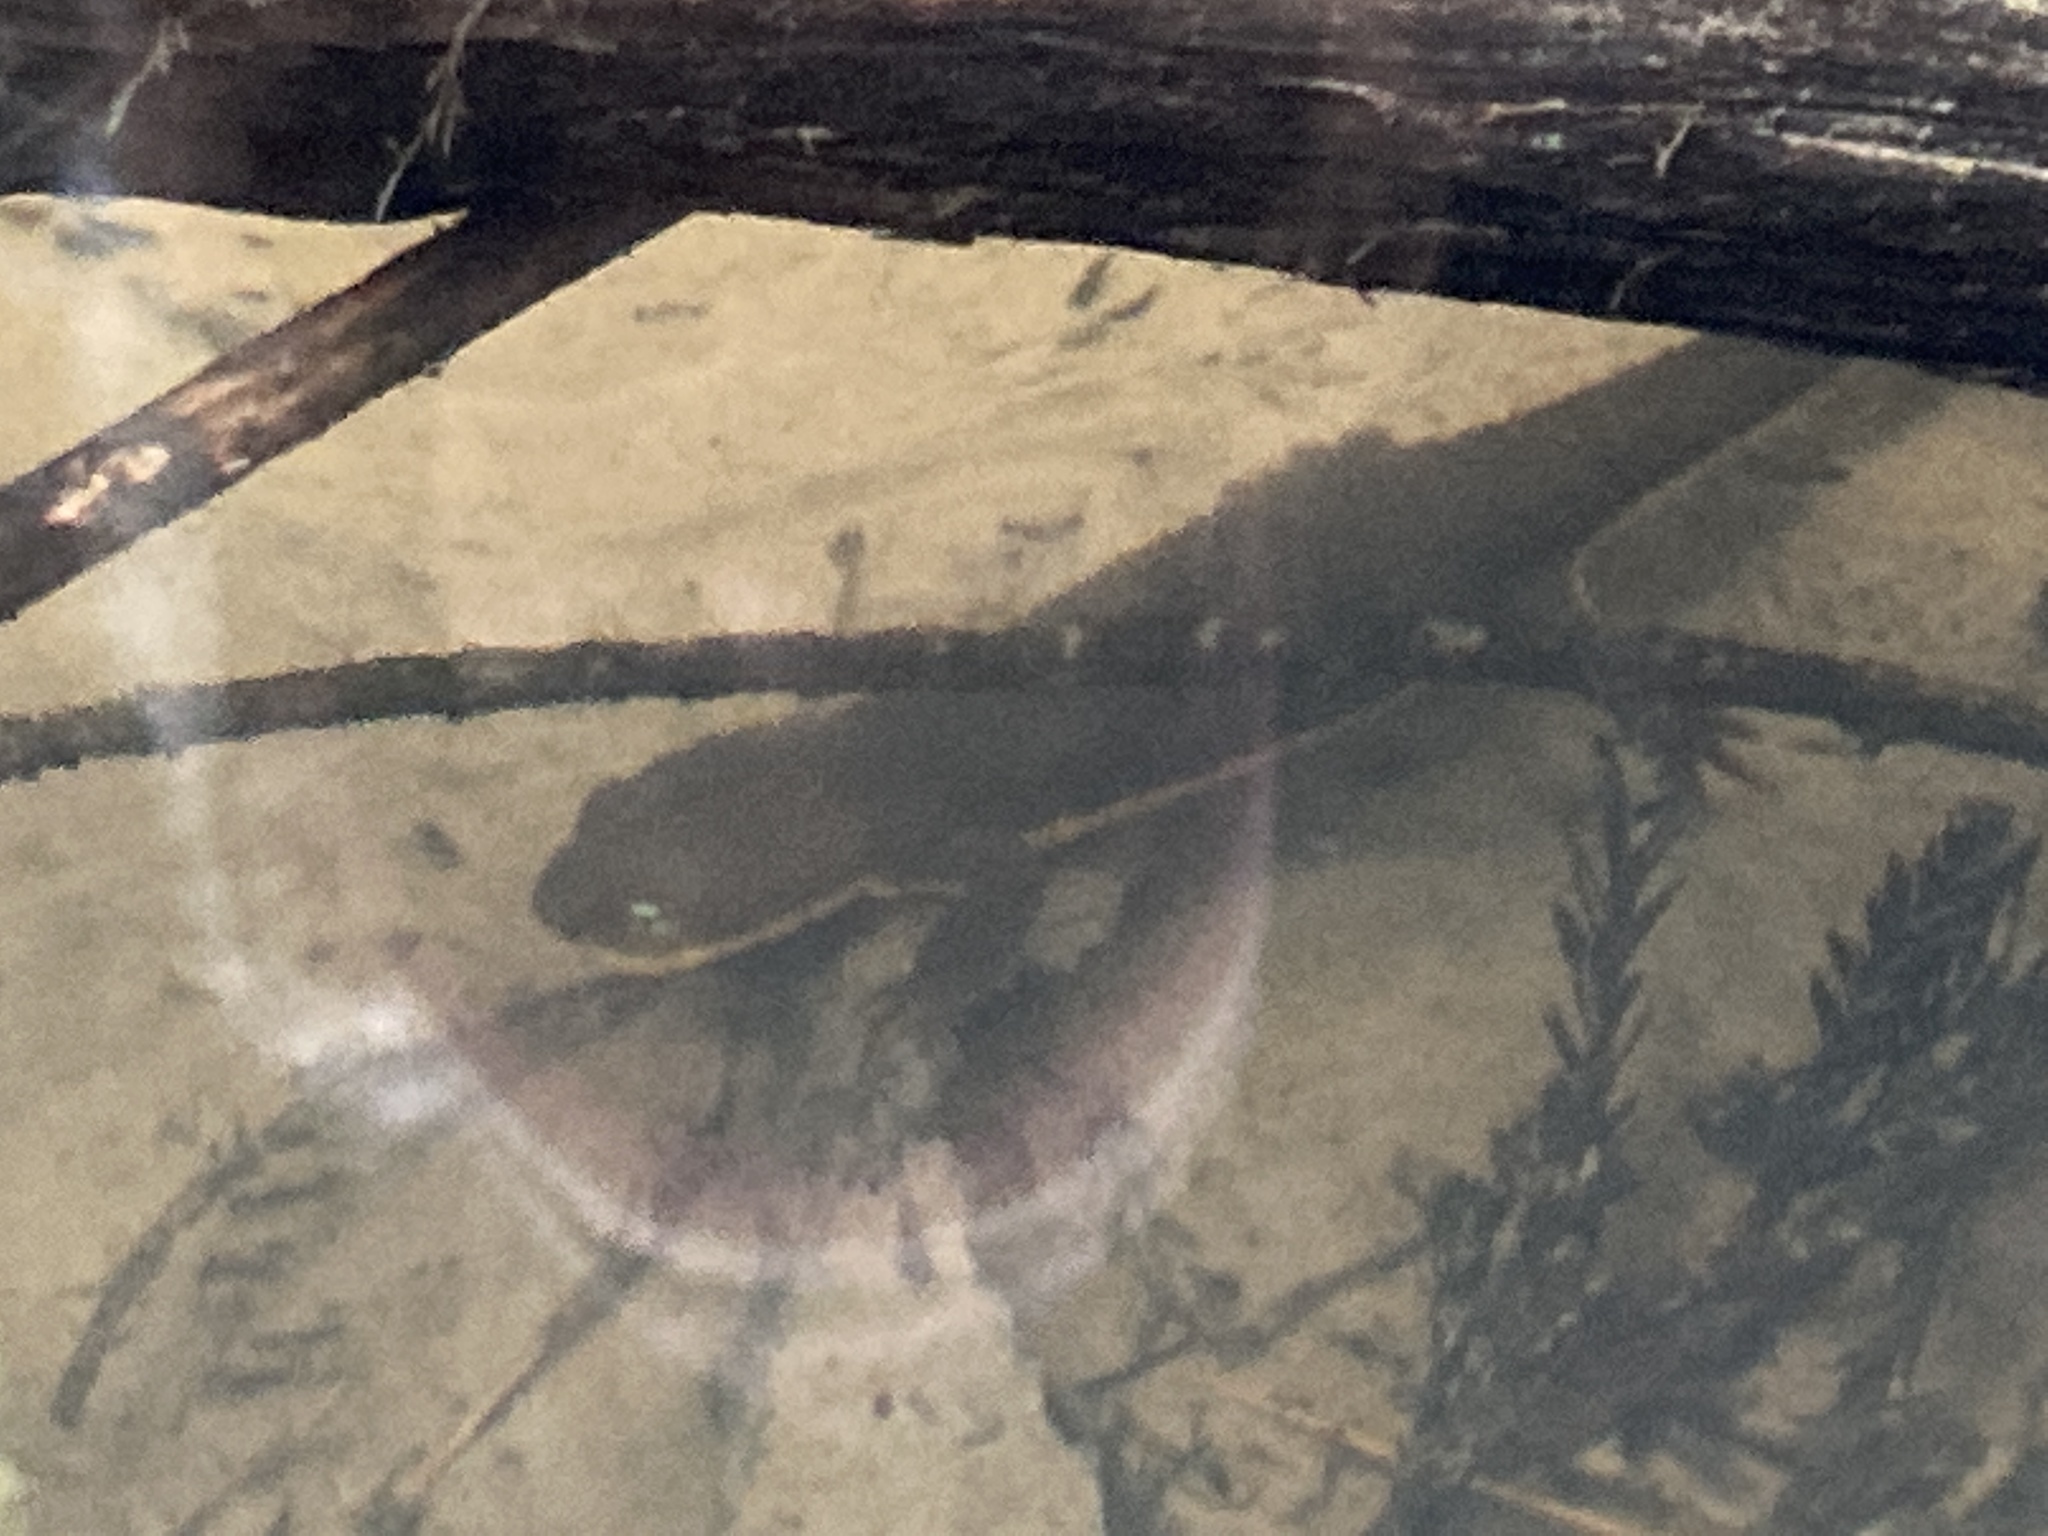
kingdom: Animalia
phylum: Chordata
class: Amphibia
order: Caudata
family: Salamandridae
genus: Taricha
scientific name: Taricha granulosa
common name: Roughskin newt
